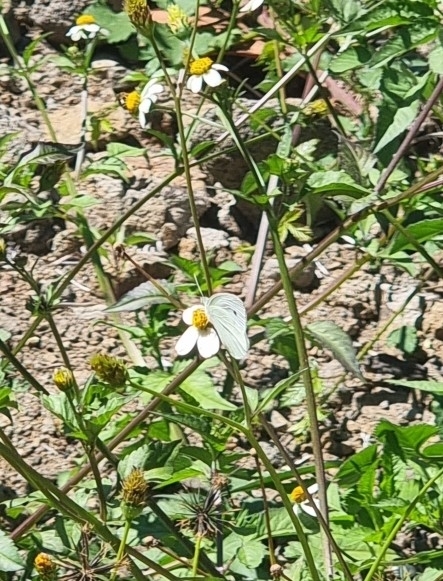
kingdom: Animalia
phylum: Arthropoda
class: Insecta
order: Lepidoptera
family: Pieridae
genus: Pieris
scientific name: Pieris rapae
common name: Small white
